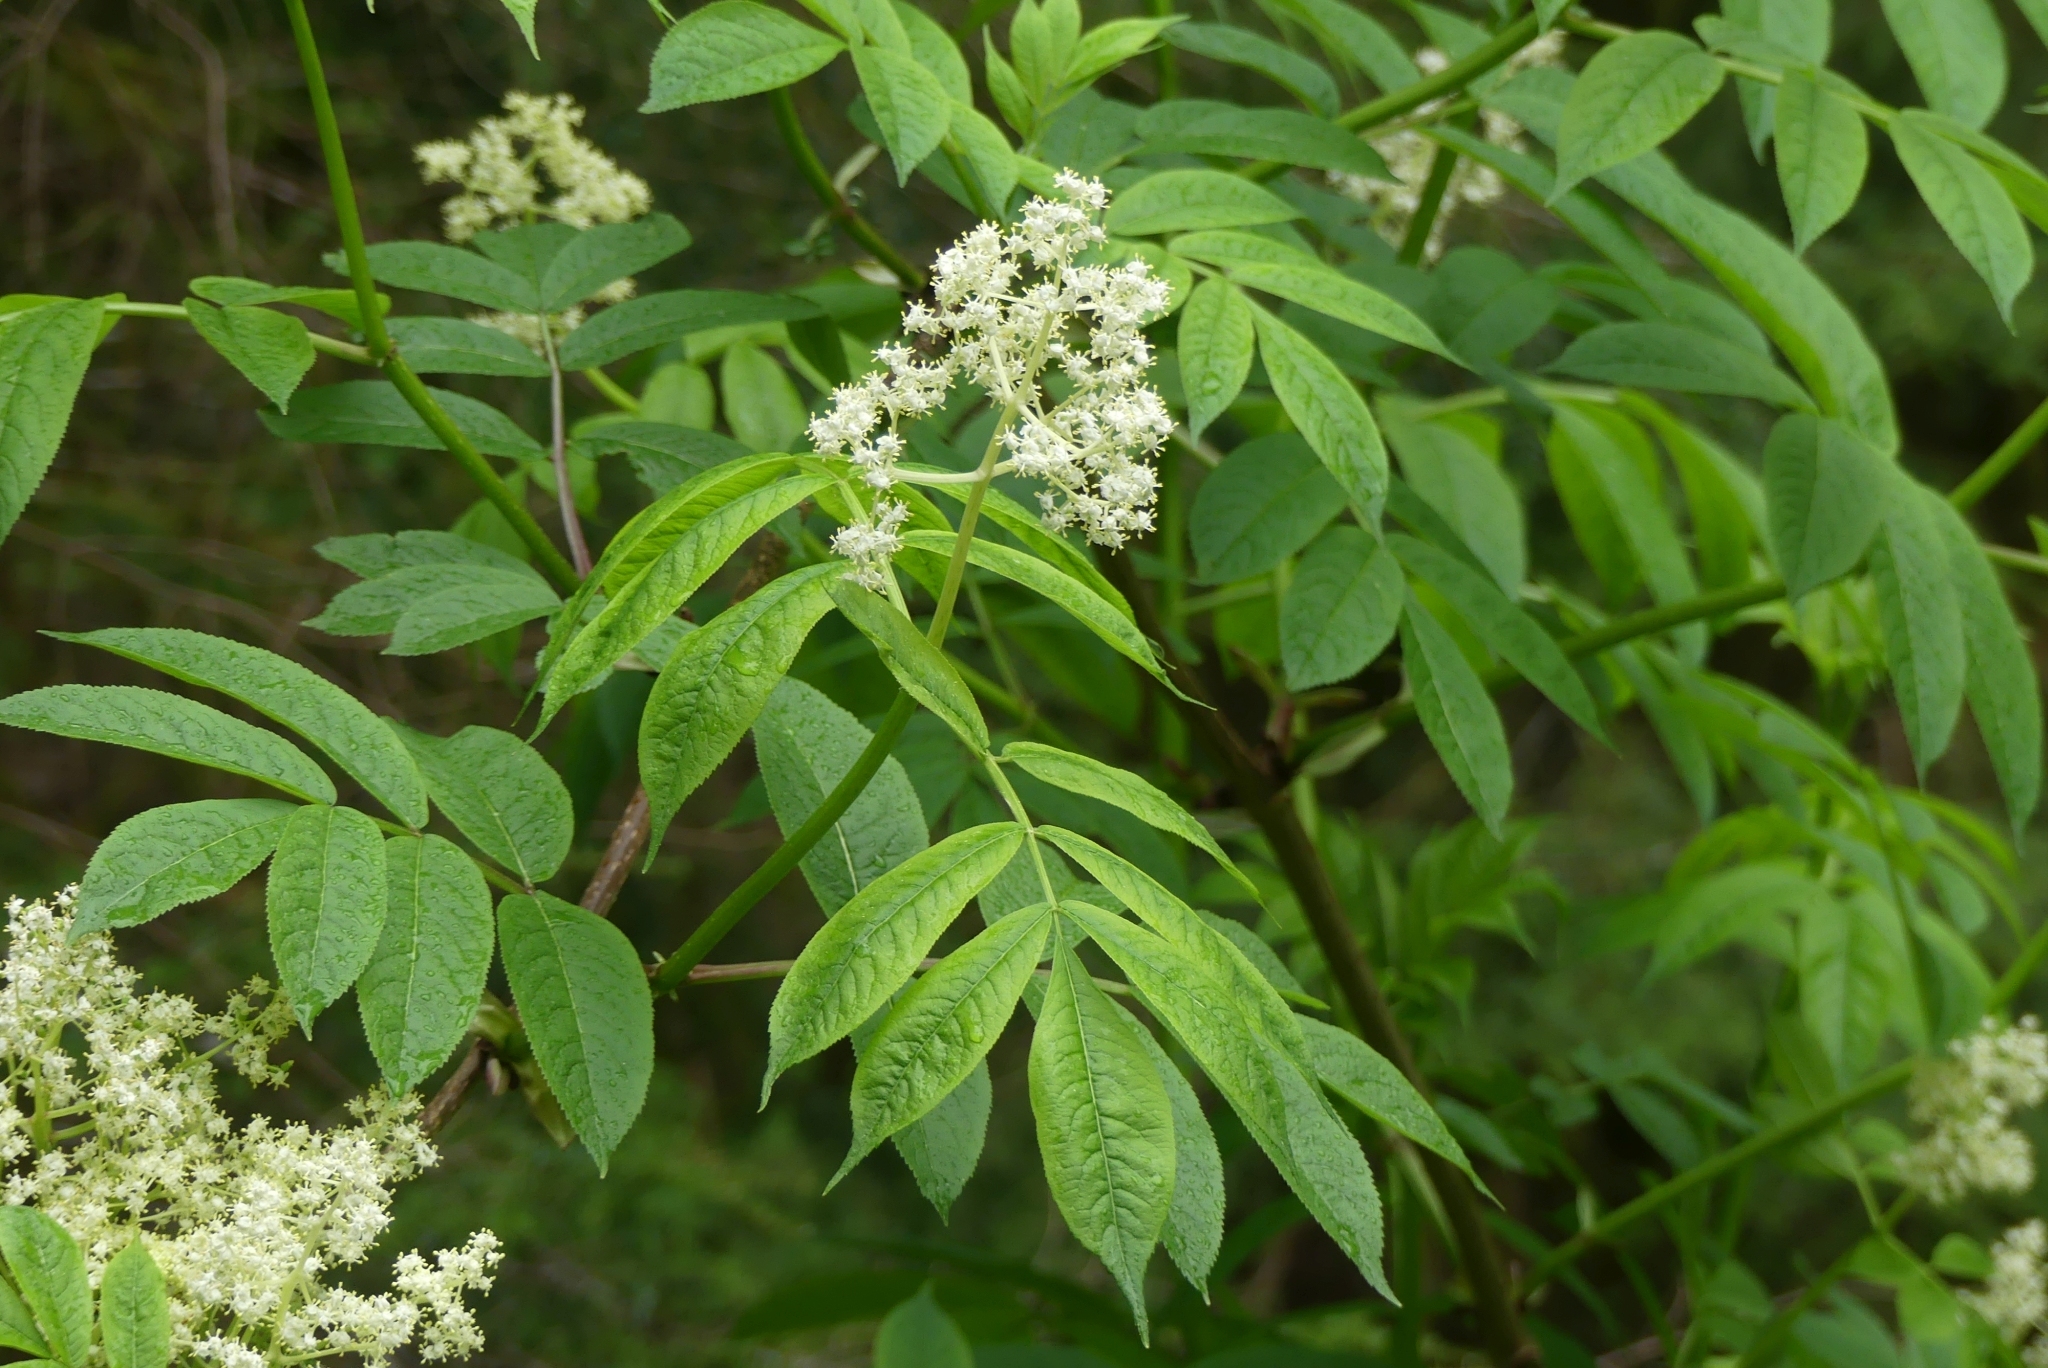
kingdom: Plantae
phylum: Tracheophyta
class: Magnoliopsida
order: Dipsacales
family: Viburnaceae
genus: Sambucus
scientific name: Sambucus racemosa
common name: Red-berried elder
